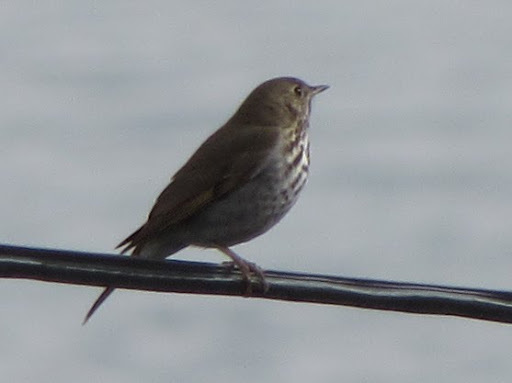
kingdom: Animalia
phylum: Chordata
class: Aves
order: Passeriformes
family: Turdidae
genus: Catharus
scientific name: Catharus guttatus
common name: Hermit thrush
